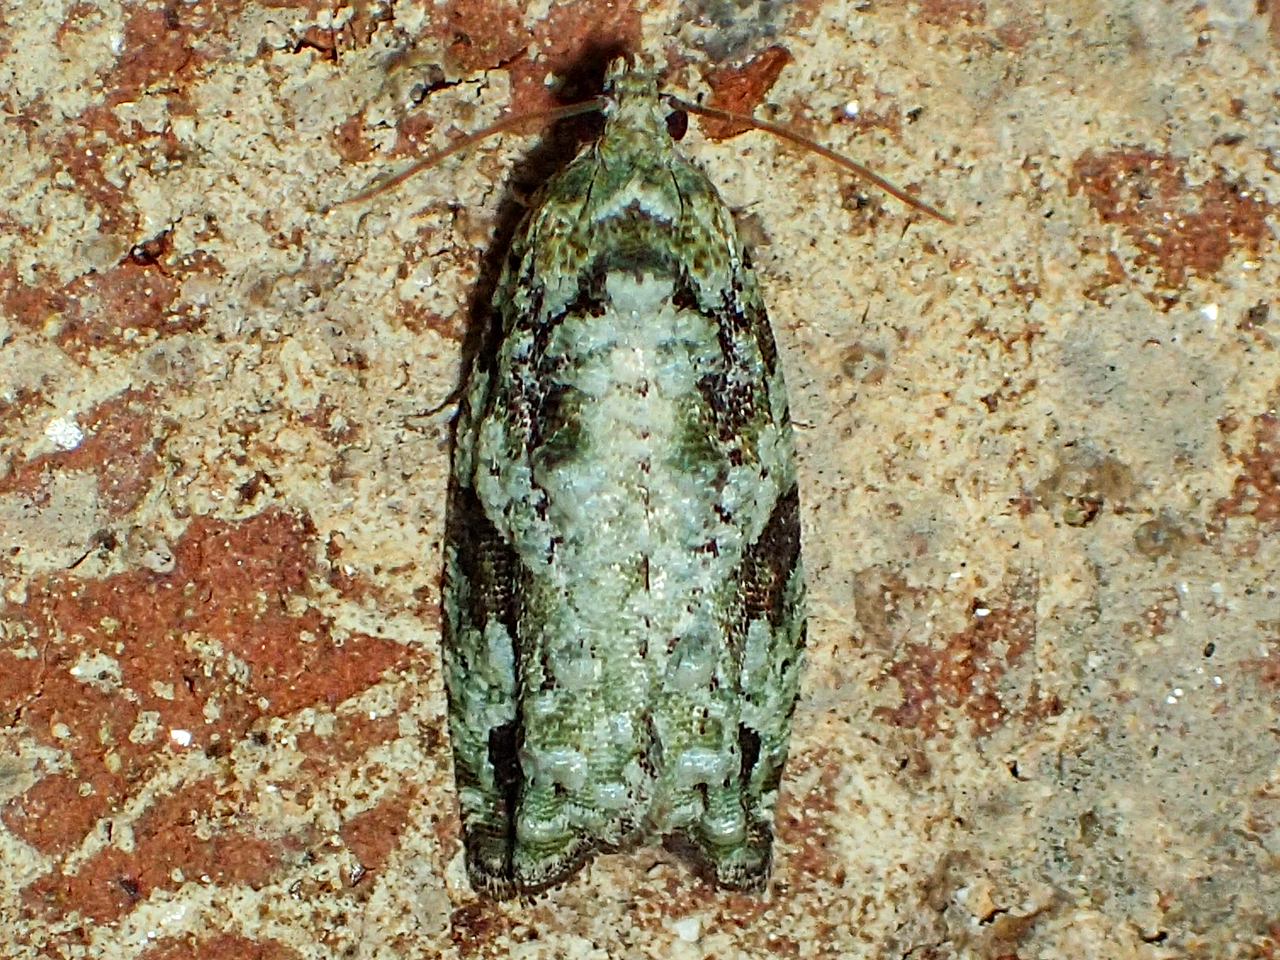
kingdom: Animalia
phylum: Arthropoda
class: Insecta
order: Lepidoptera
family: Tortricidae
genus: Proteoteras
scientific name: Proteoteras moffatiana
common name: Maple bud borer moth
